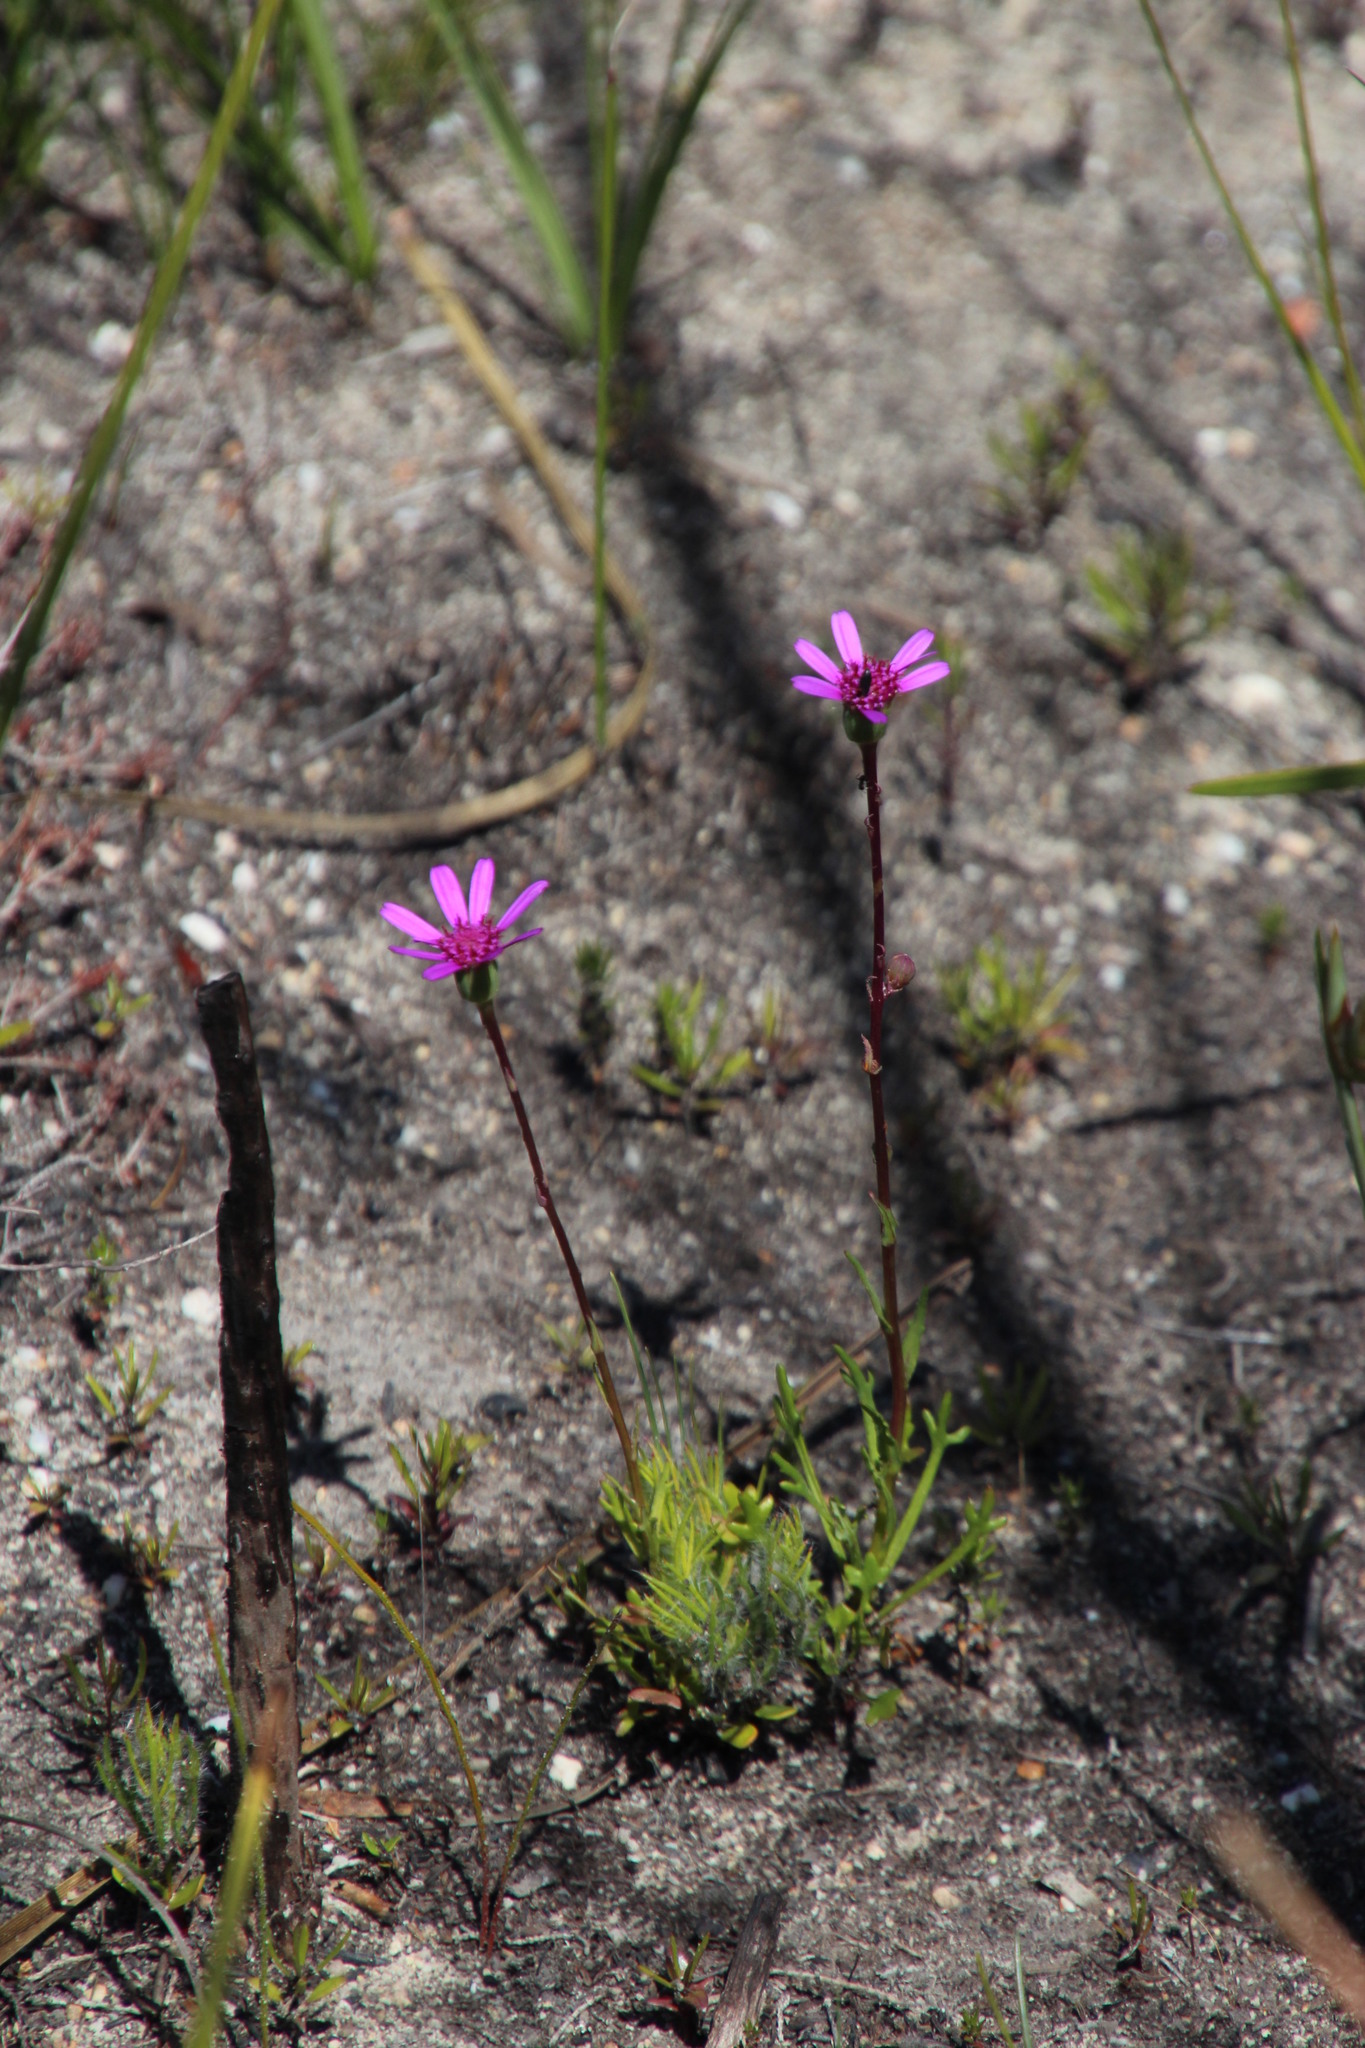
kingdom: Plantae
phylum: Tracheophyta
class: Magnoliopsida
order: Asterales
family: Asteraceae
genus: Senecio
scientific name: Senecio hastifolius
